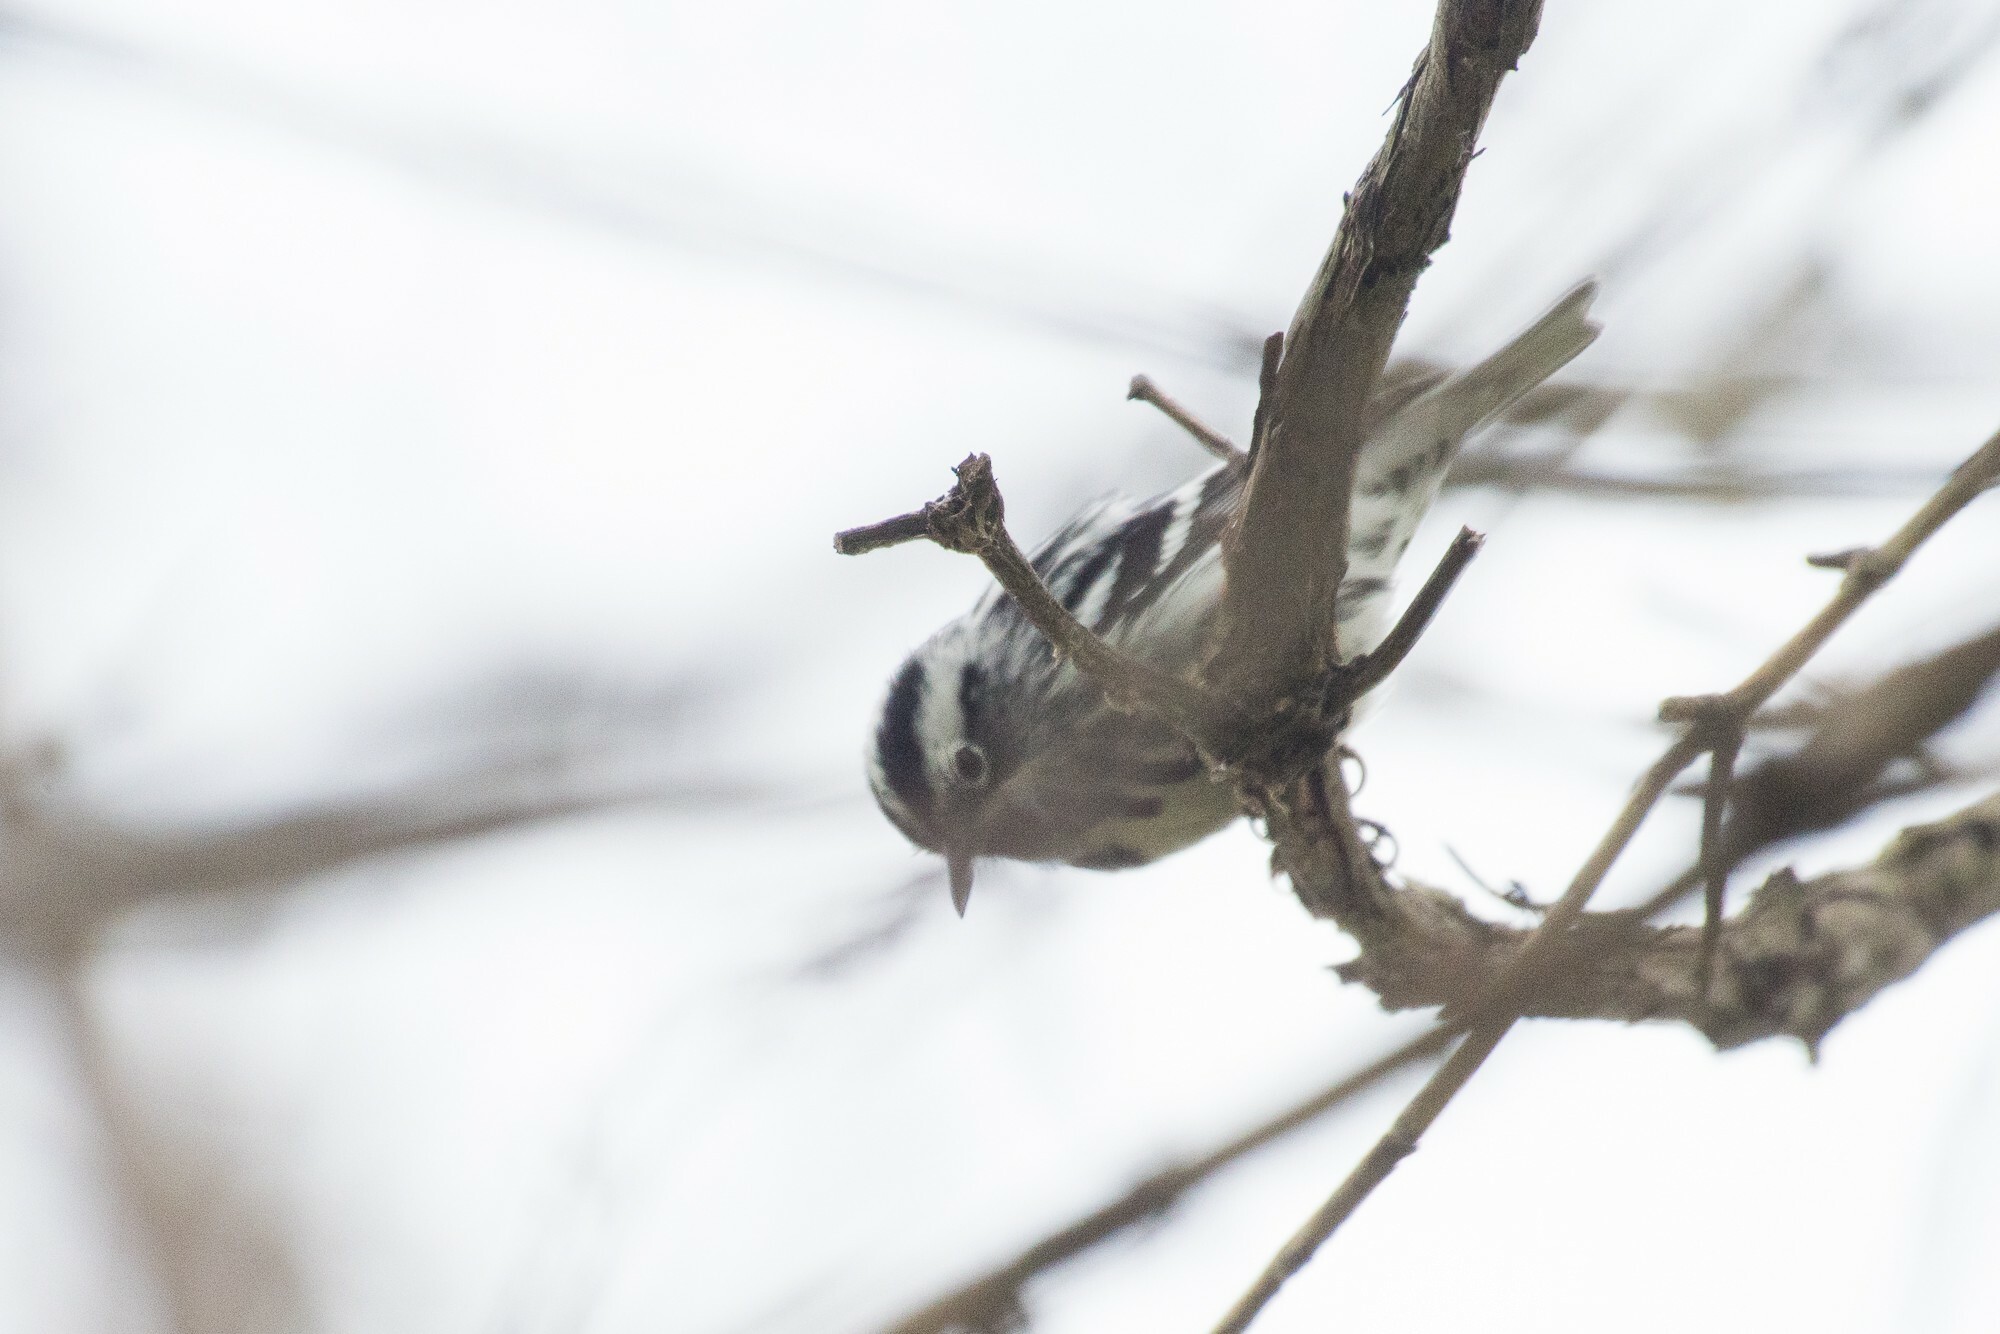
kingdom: Animalia
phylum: Chordata
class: Aves
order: Passeriformes
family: Parulidae
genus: Mniotilta
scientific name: Mniotilta varia
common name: Black-and-white warbler
